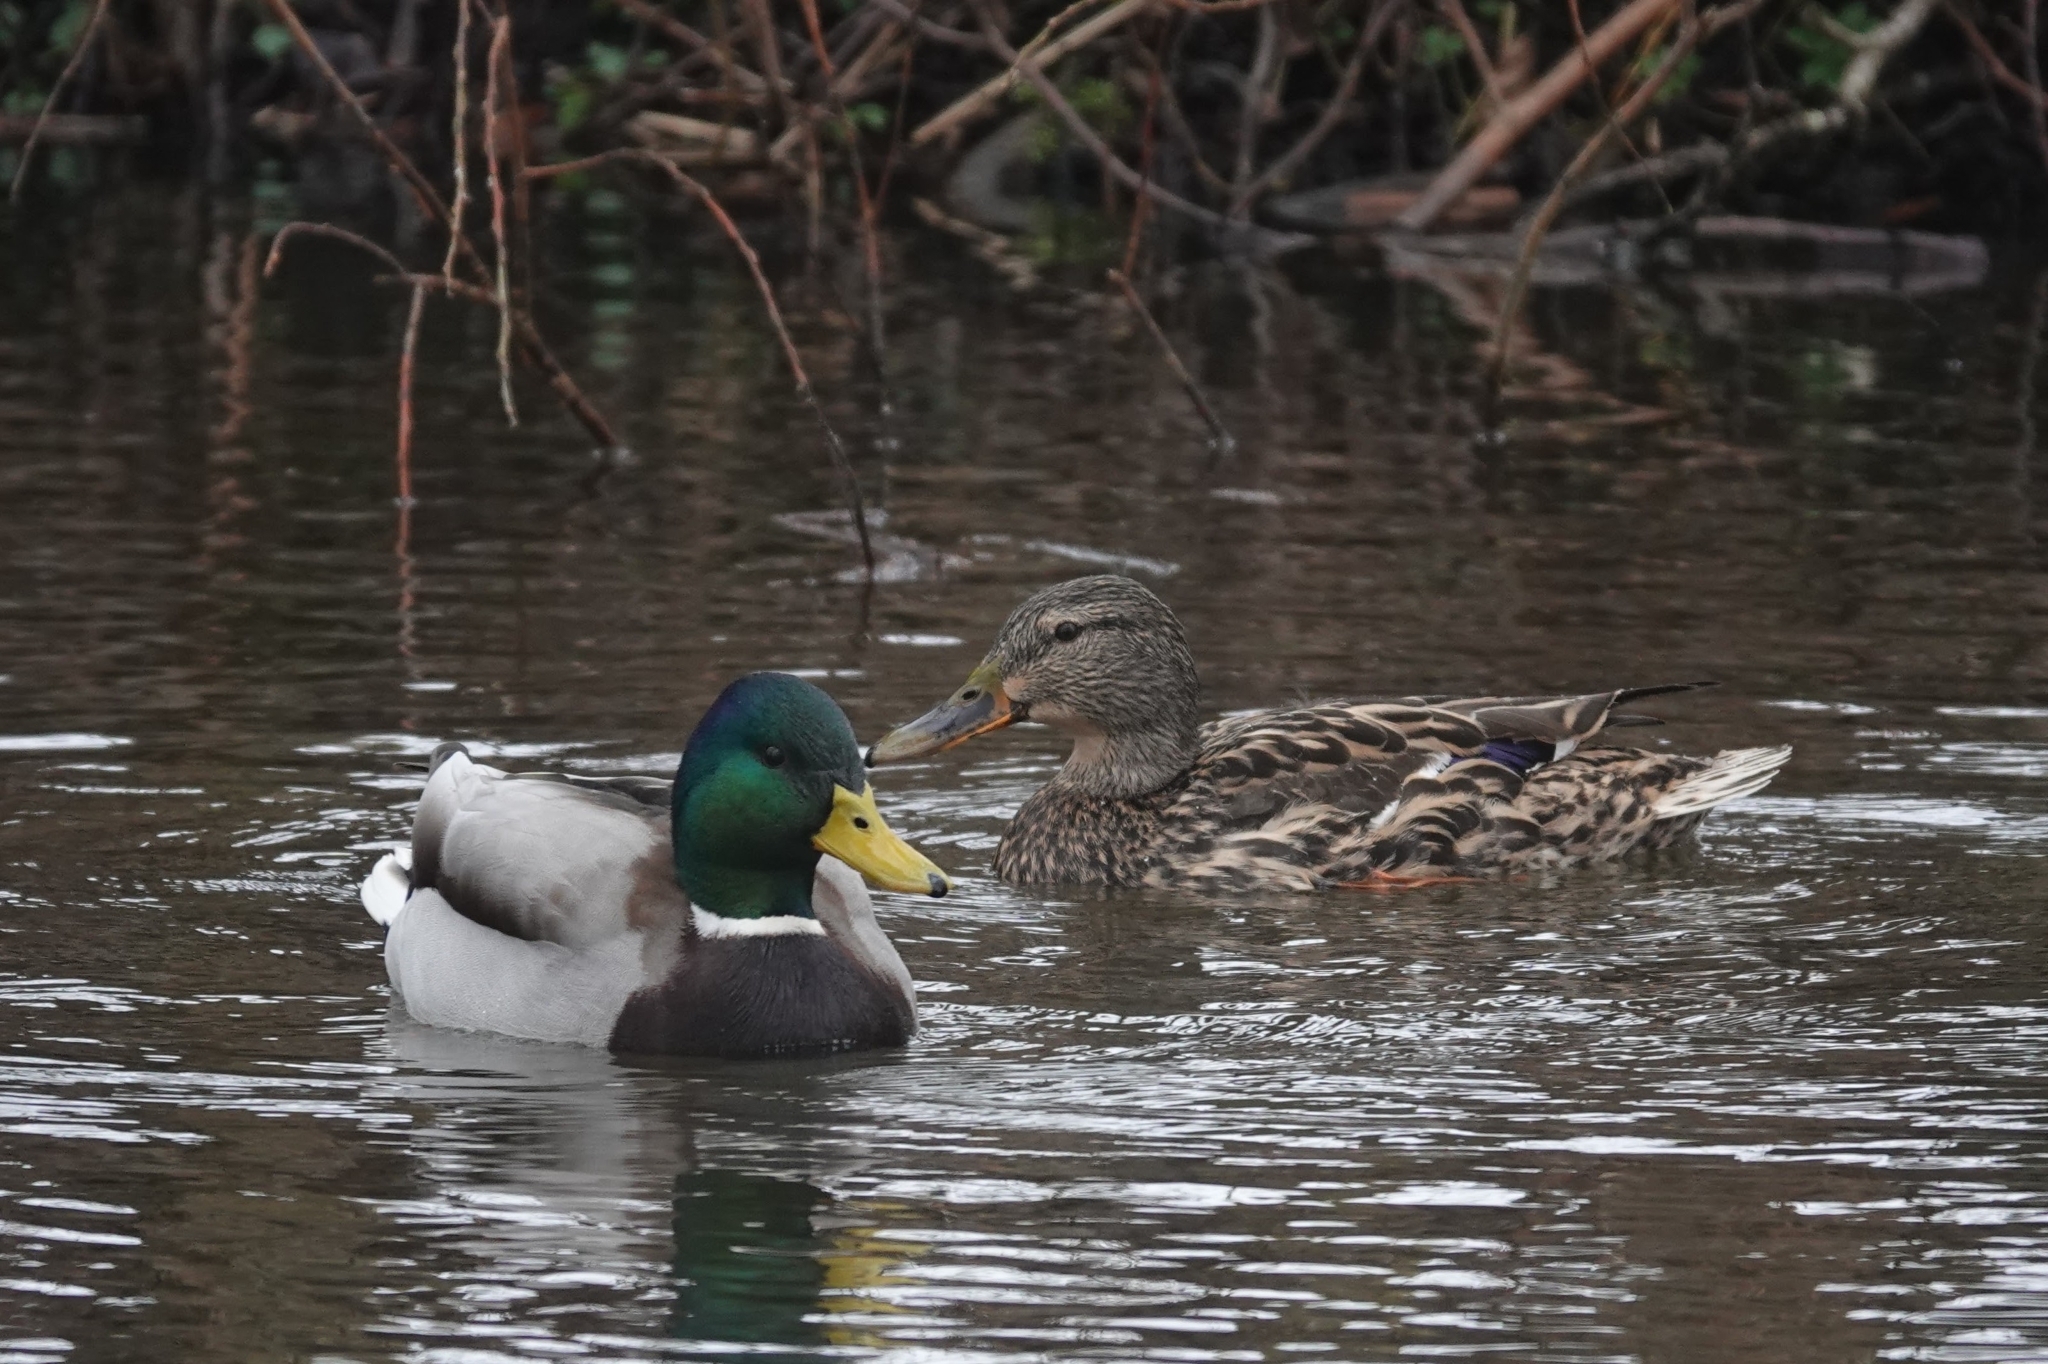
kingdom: Animalia
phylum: Chordata
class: Aves
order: Anseriformes
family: Anatidae
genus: Anas
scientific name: Anas platyrhynchos
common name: Mallard
